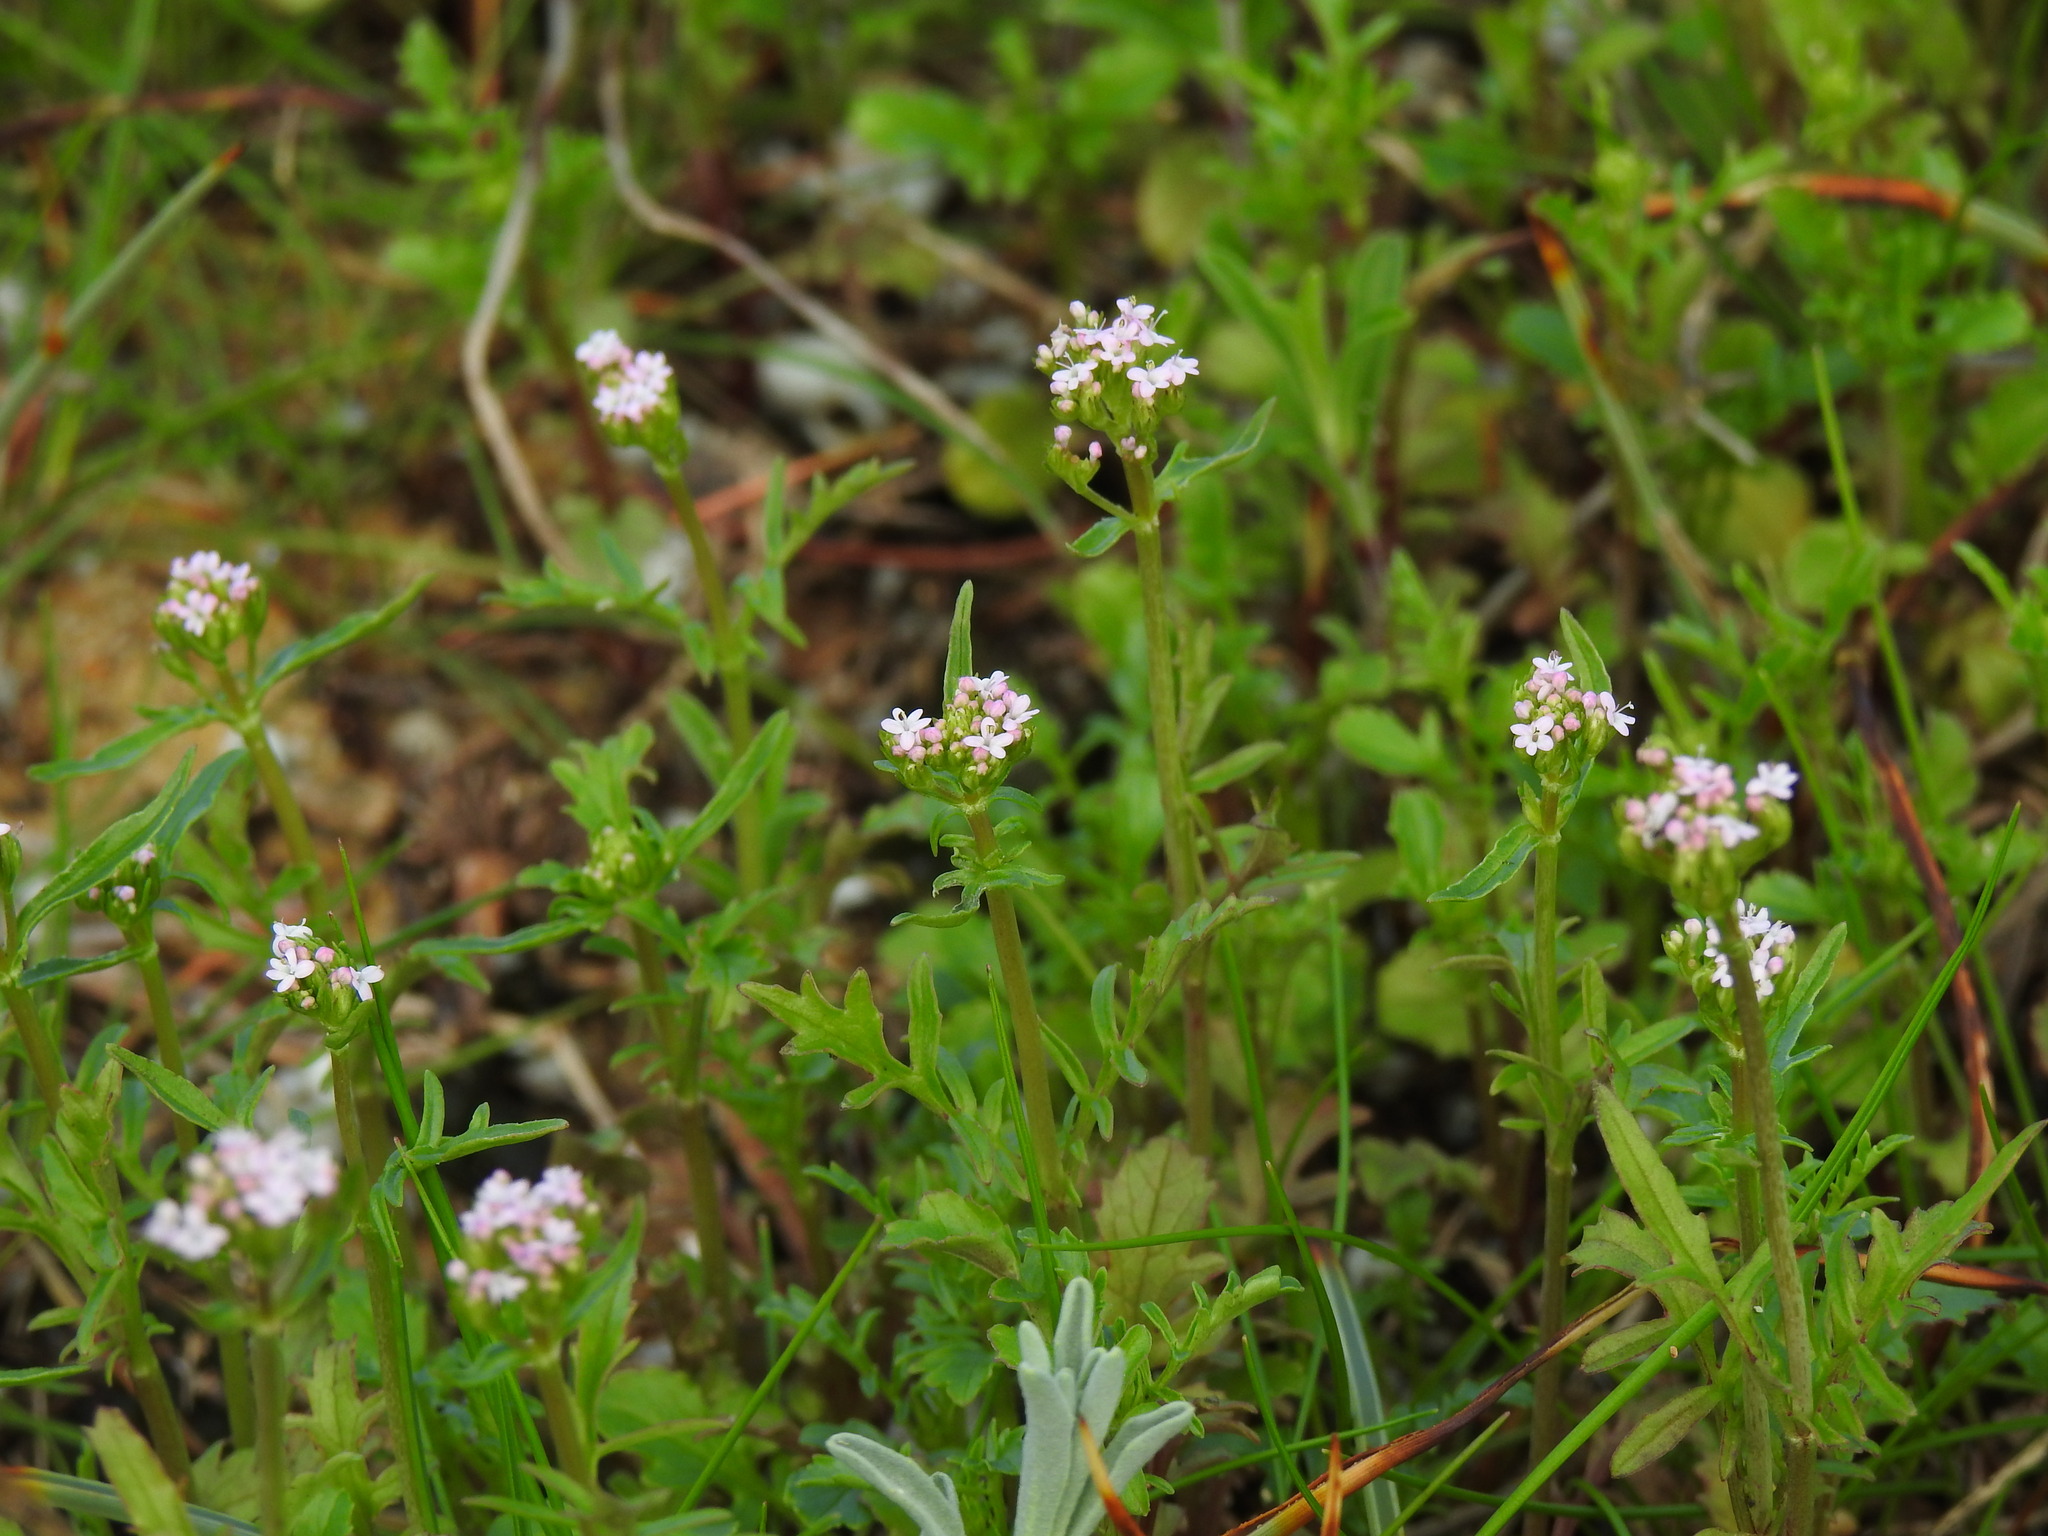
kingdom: Plantae
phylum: Tracheophyta
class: Magnoliopsida
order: Dipsacales
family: Caprifoliaceae
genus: Centranthus
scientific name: Centranthus calcitrapae
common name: Annual valerian
